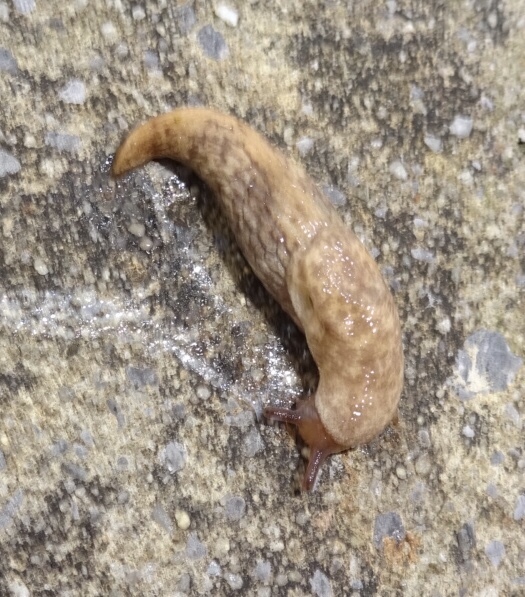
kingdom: Animalia
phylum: Mollusca
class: Gastropoda
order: Stylommatophora
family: Agriolimacidae
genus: Deroceras
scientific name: Deroceras reticulatum
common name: Gray field slug
